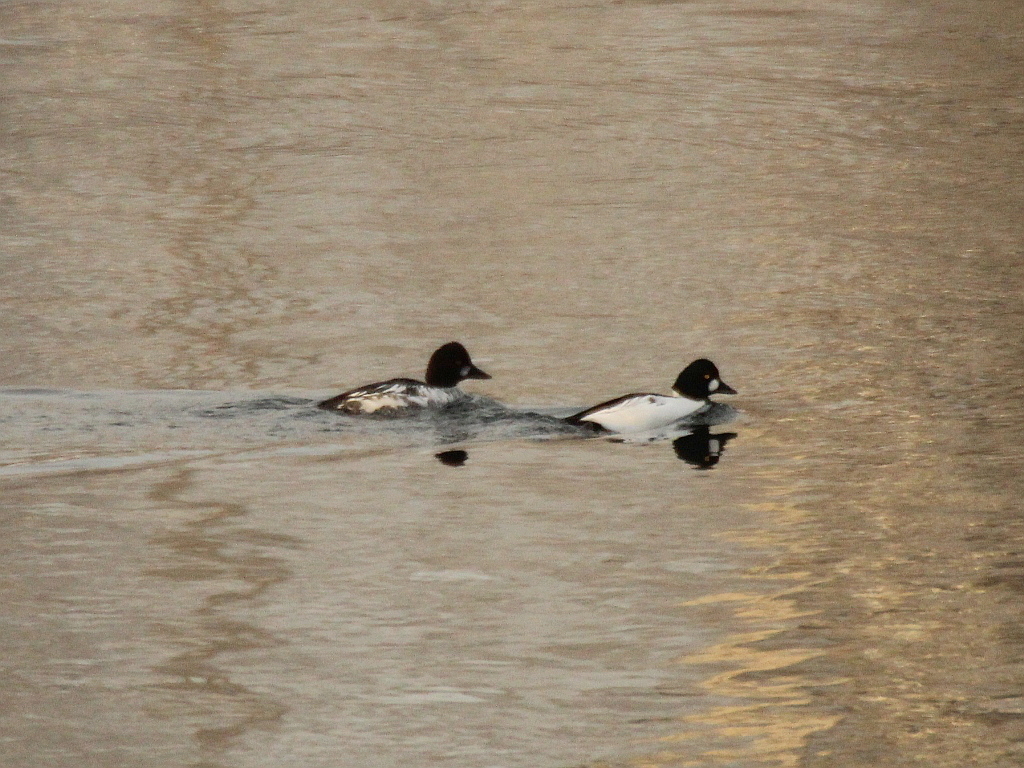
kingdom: Animalia
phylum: Chordata
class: Aves
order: Anseriformes
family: Anatidae
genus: Bucephala
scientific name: Bucephala clangula
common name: Common goldeneye
